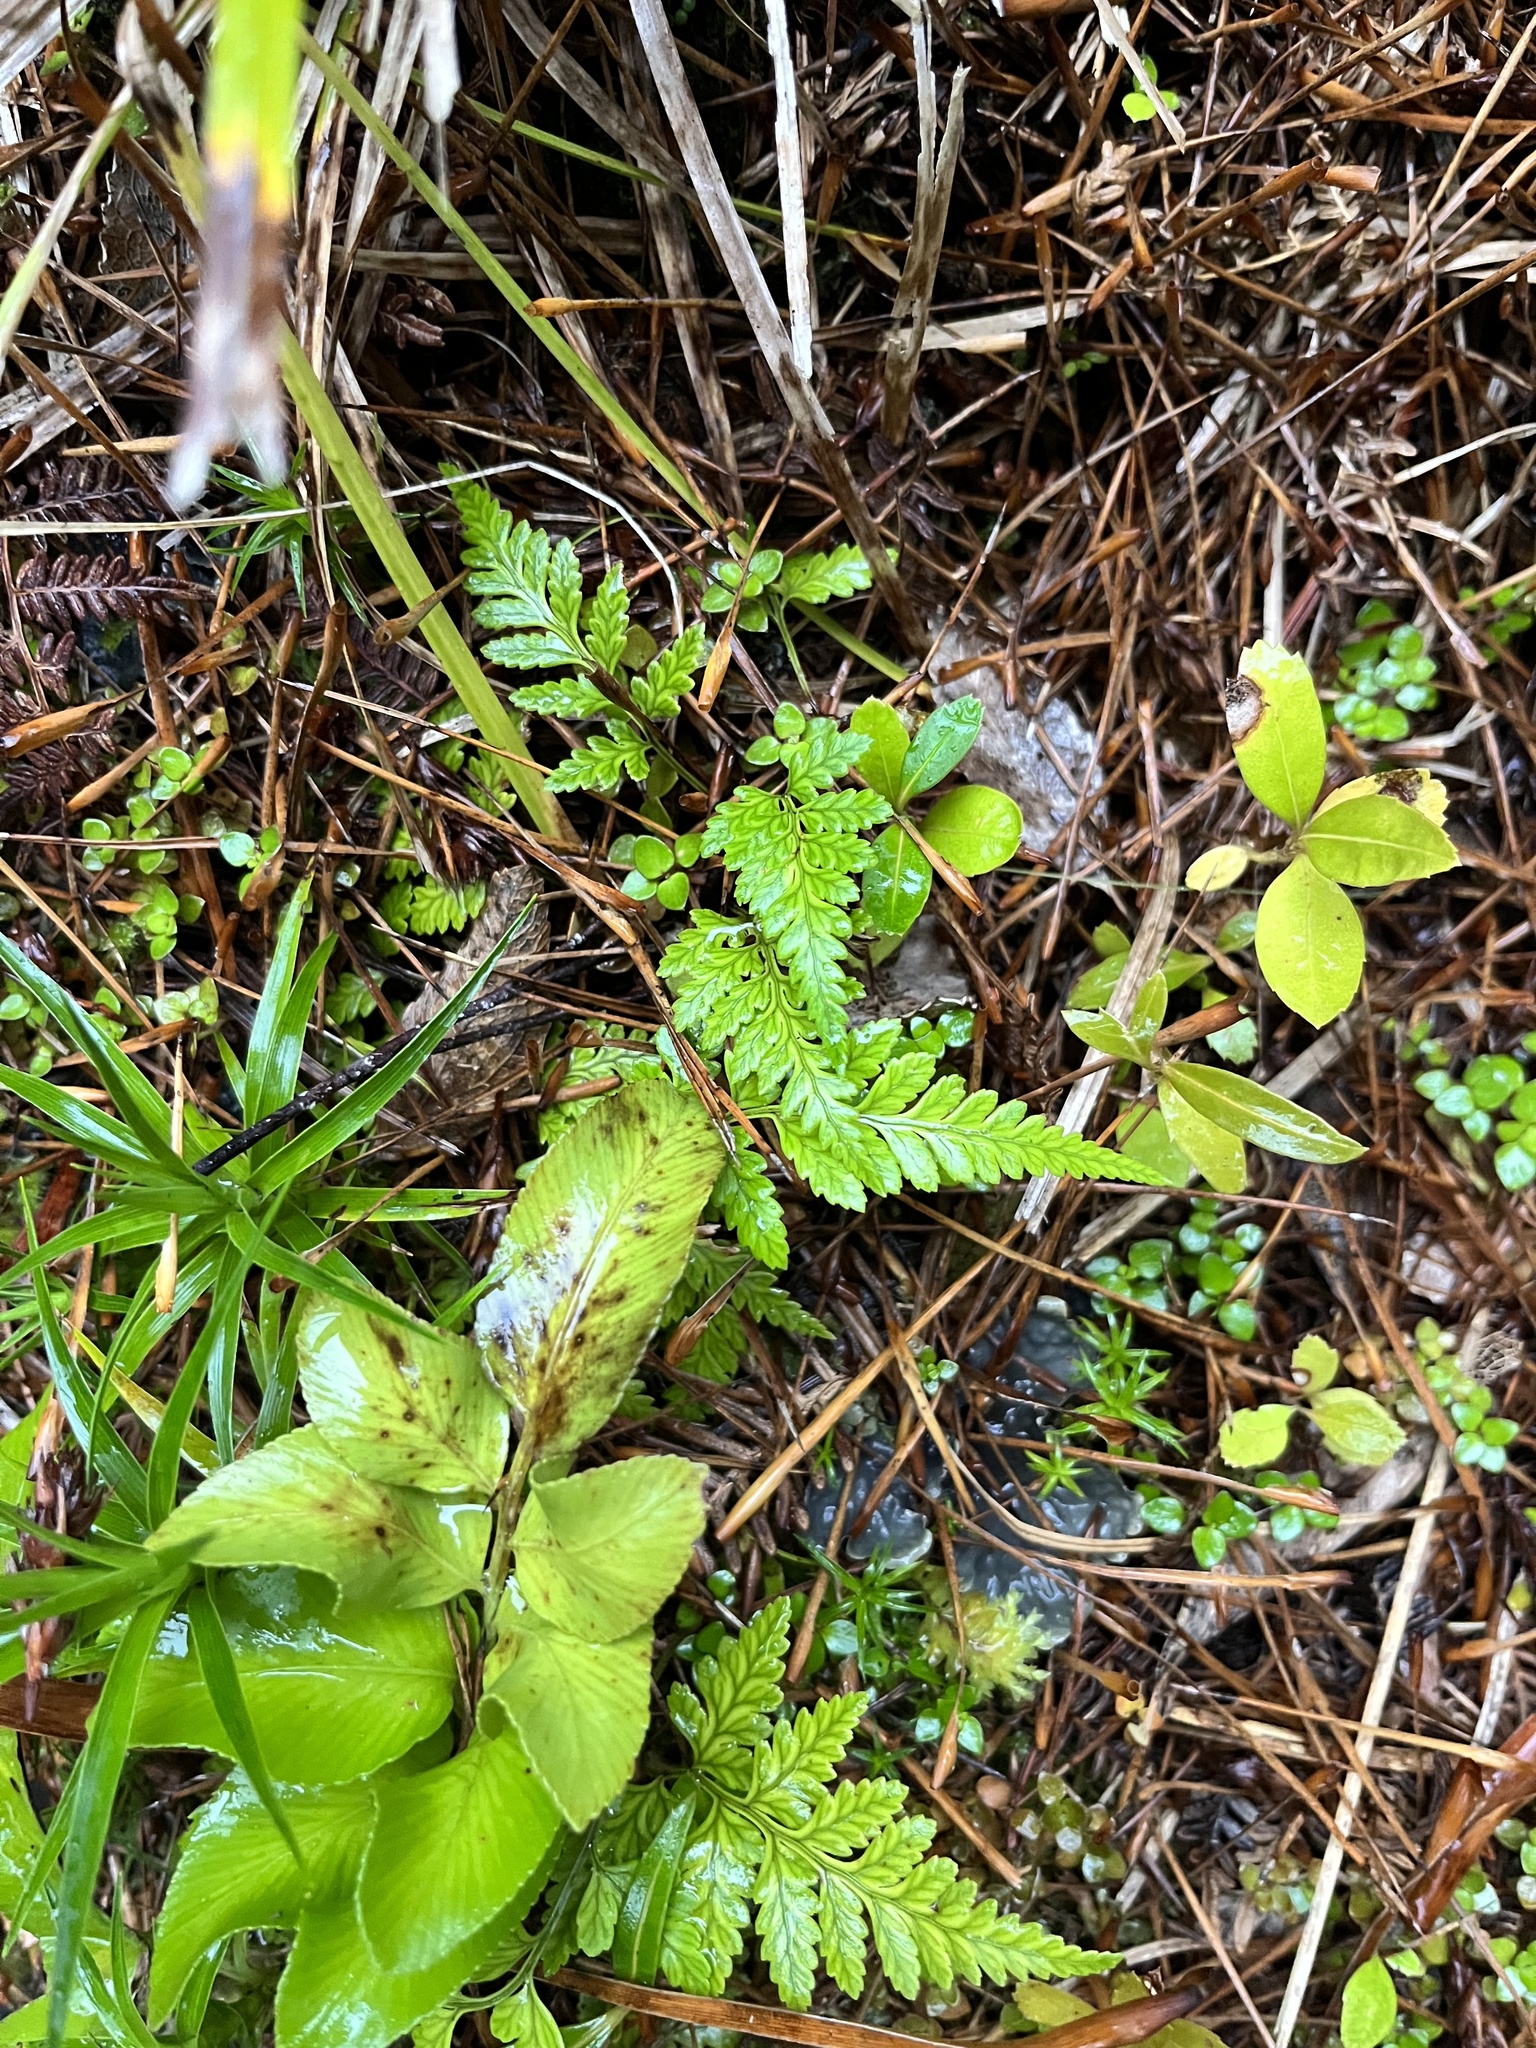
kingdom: Plantae
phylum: Tracheophyta
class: Polypodiopsida
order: Polypodiales
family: Dryopteridaceae
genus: Rumohra
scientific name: Rumohra adiantiformis
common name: Leather fern
